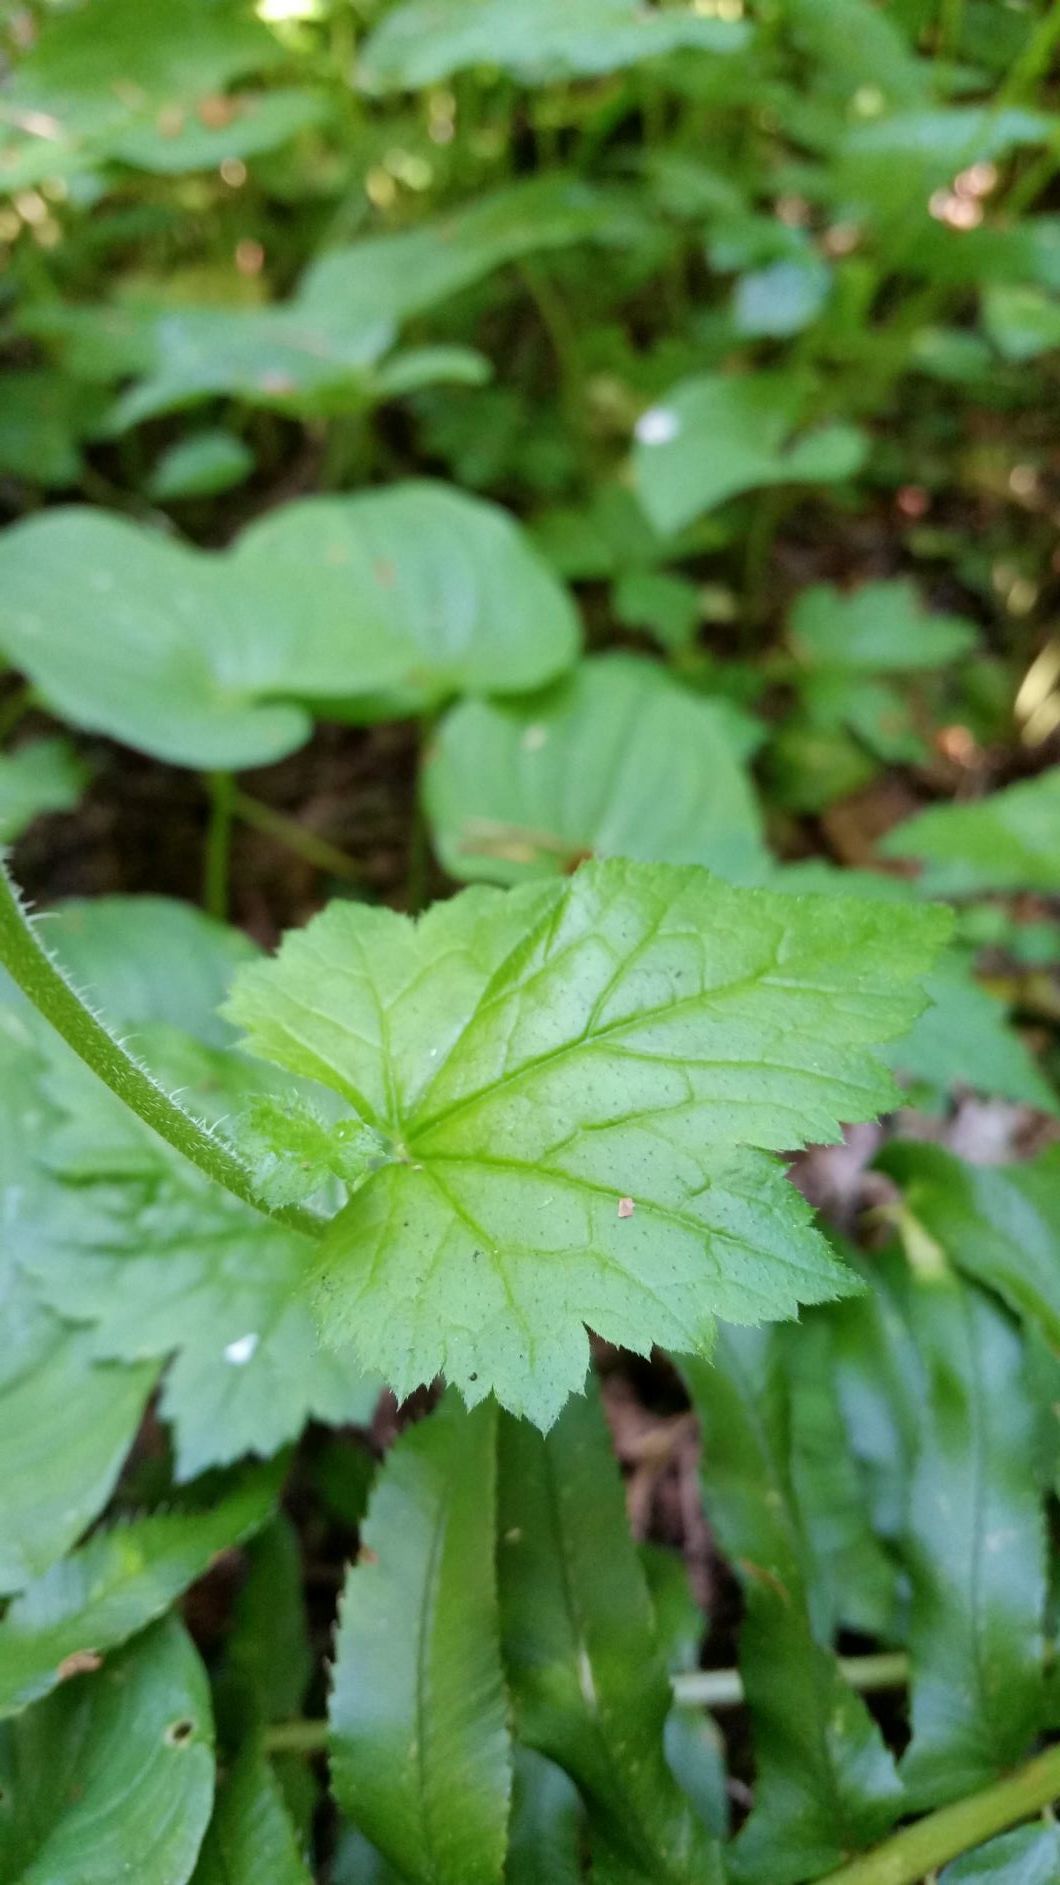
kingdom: Plantae
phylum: Tracheophyta
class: Magnoliopsida
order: Saxifragales
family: Saxifragaceae
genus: Tolmiea
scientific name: Tolmiea menziesii
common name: Pick-a-back-plant
